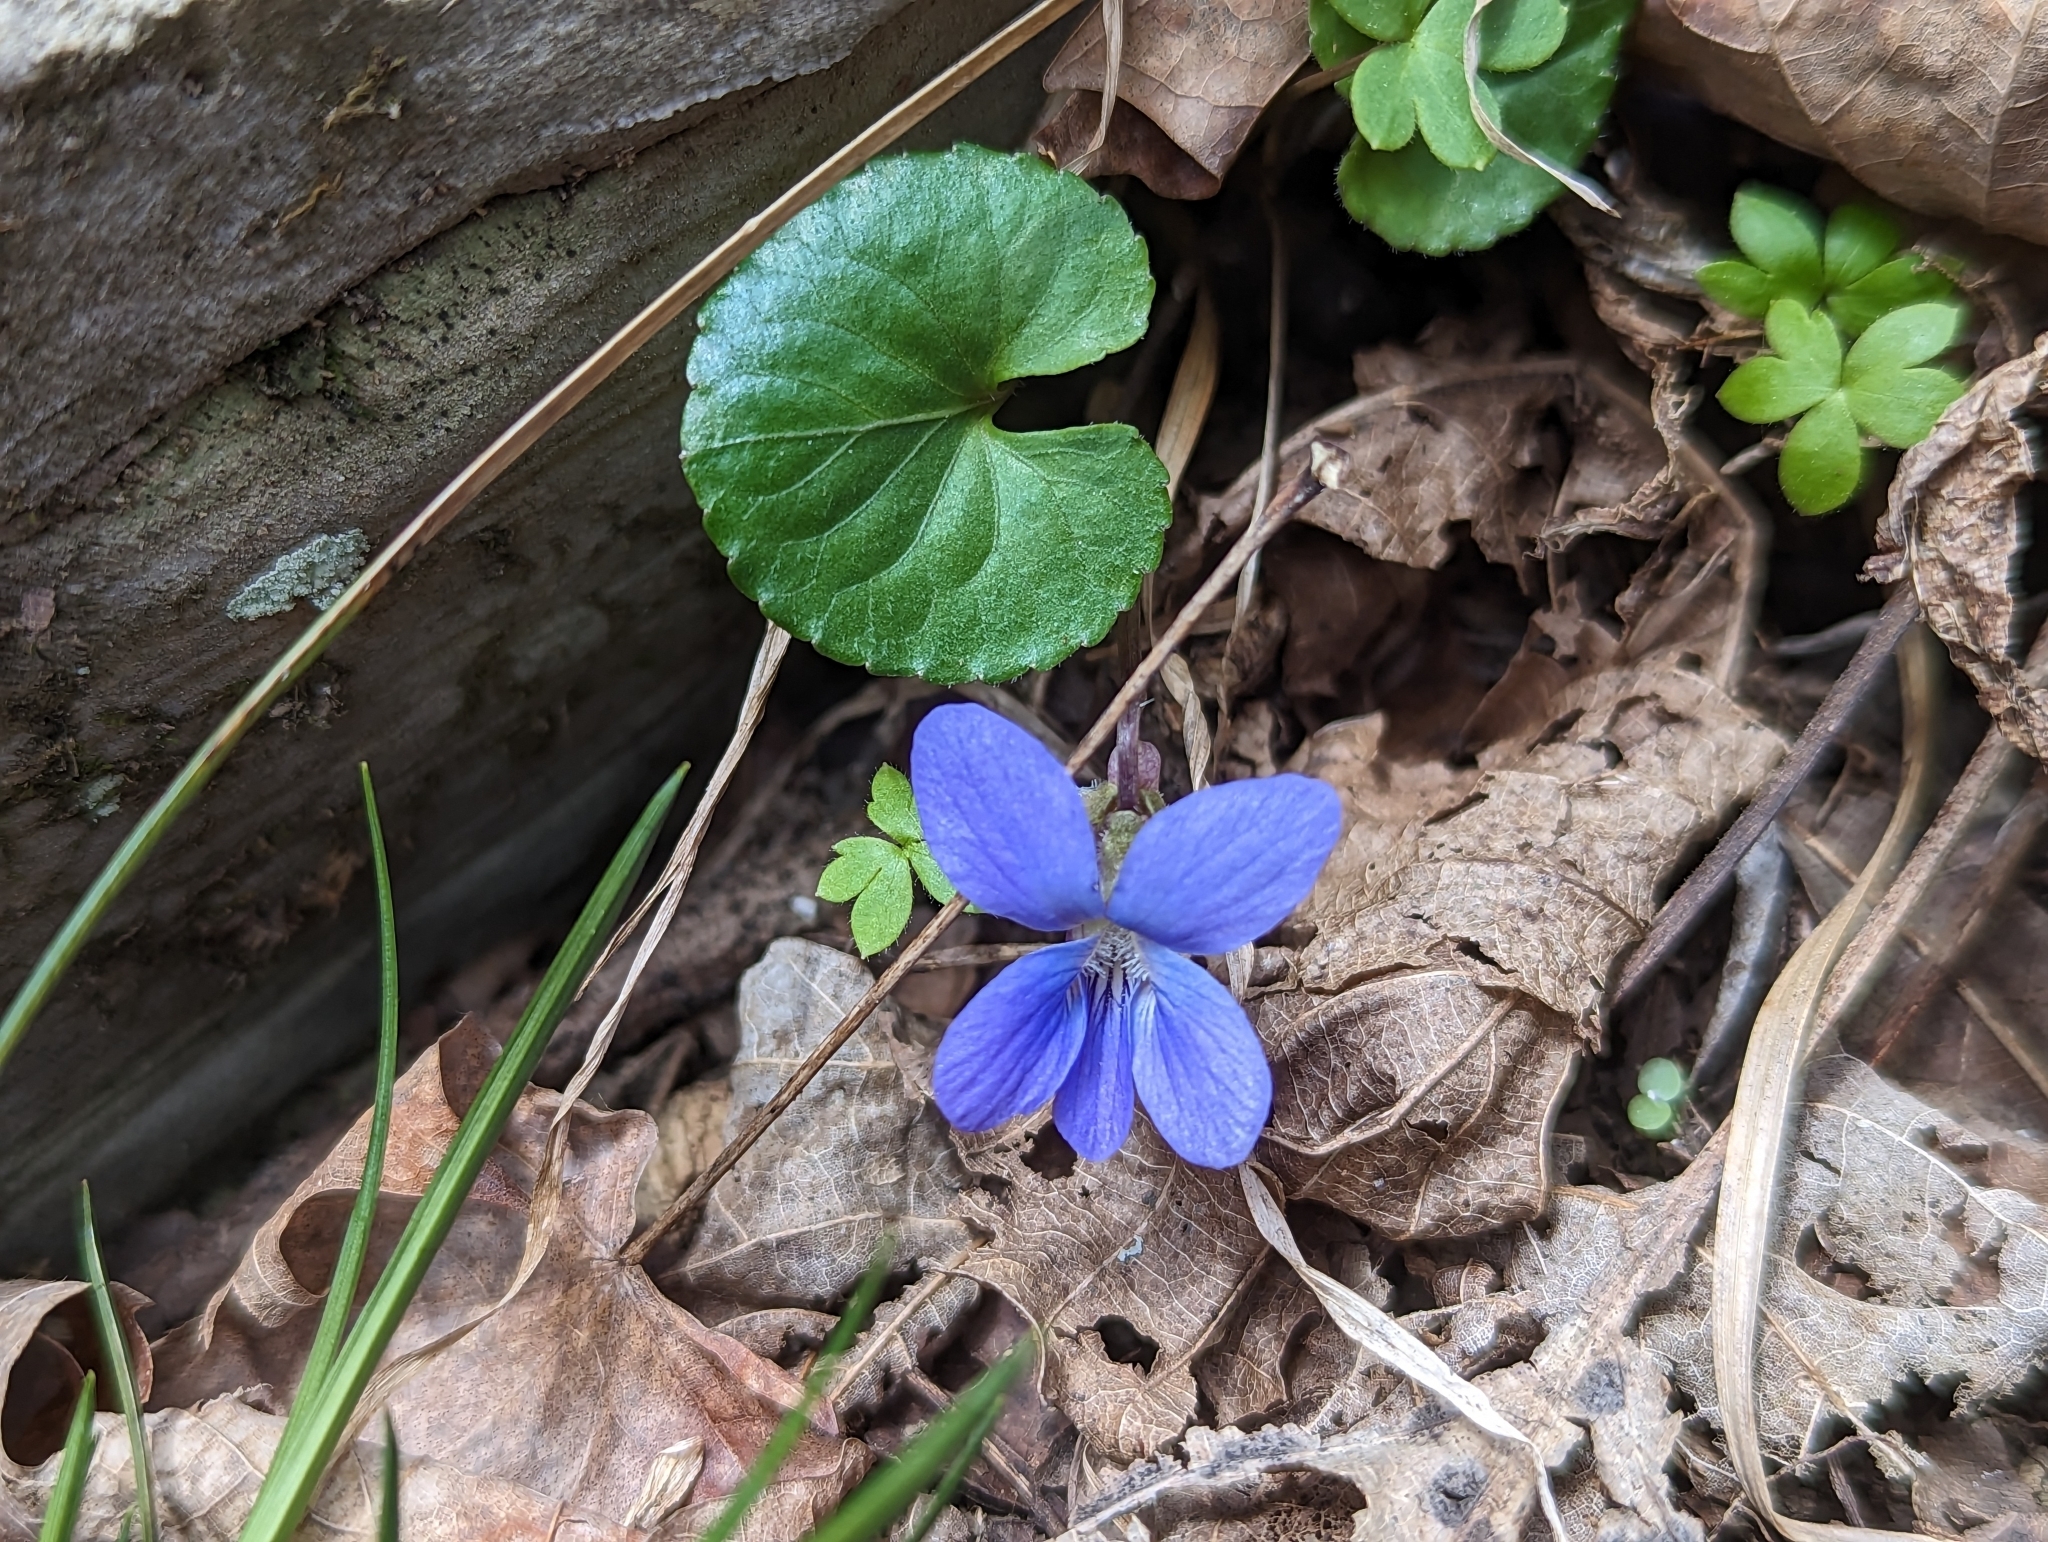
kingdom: Plantae
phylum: Tracheophyta
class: Magnoliopsida
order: Malpighiales
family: Violaceae
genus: Viola
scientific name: Viola sororia
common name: Dooryard violet
